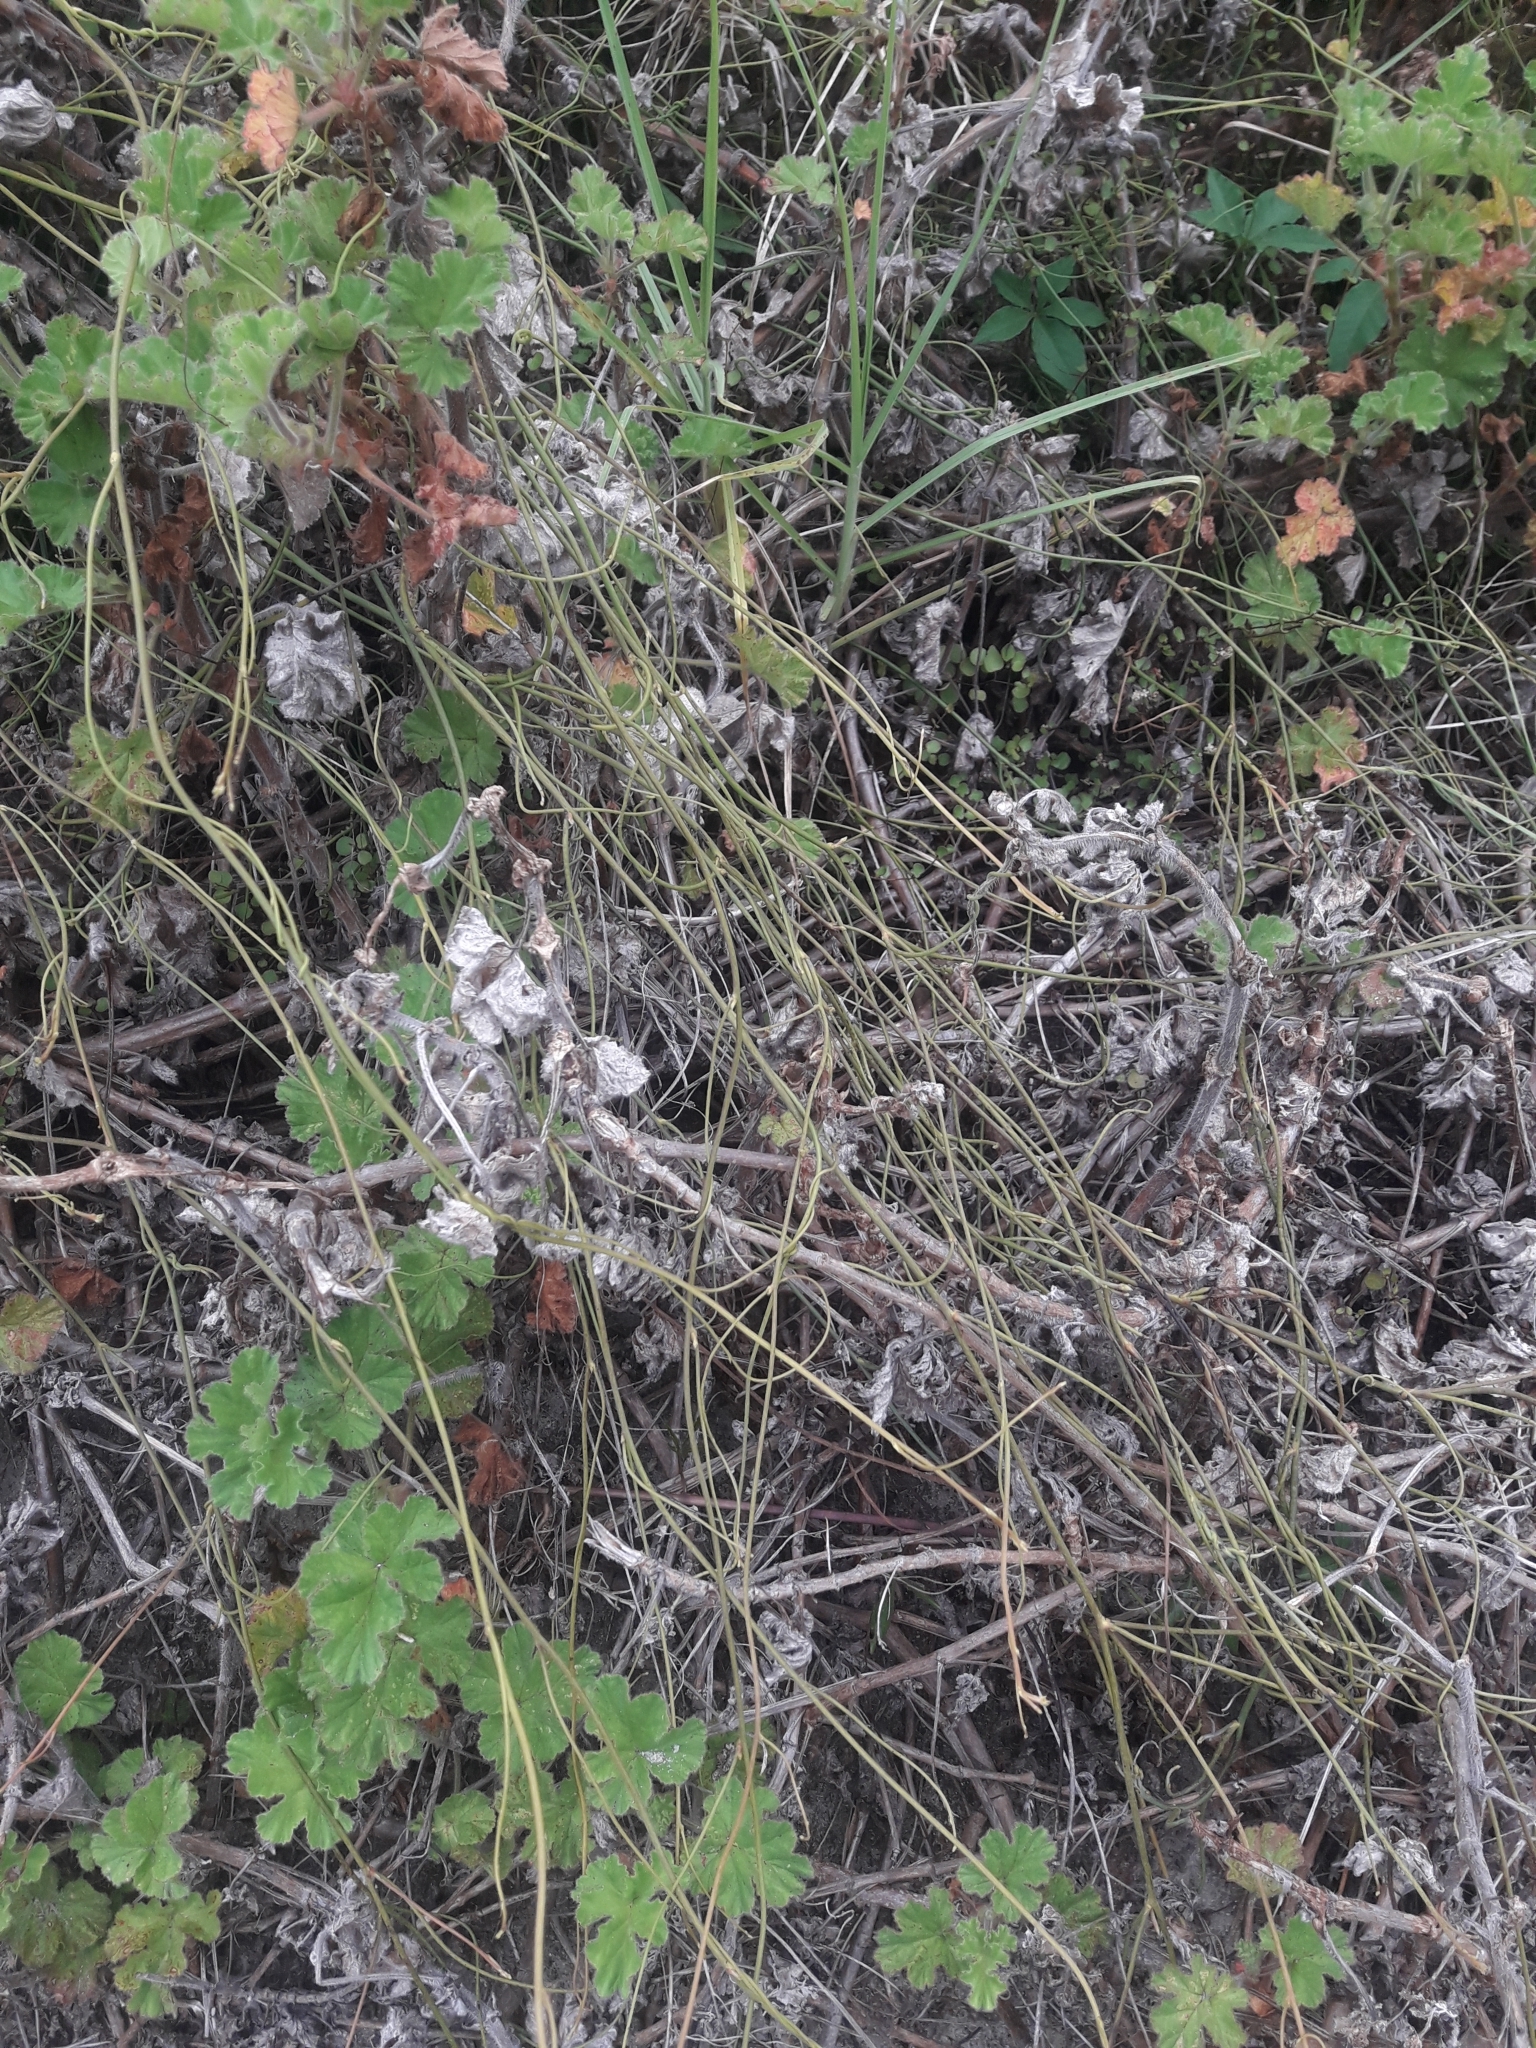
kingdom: Plantae
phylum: Tracheophyta
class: Magnoliopsida
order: Laurales
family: Lauraceae
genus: Cassytha
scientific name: Cassytha paniculata
